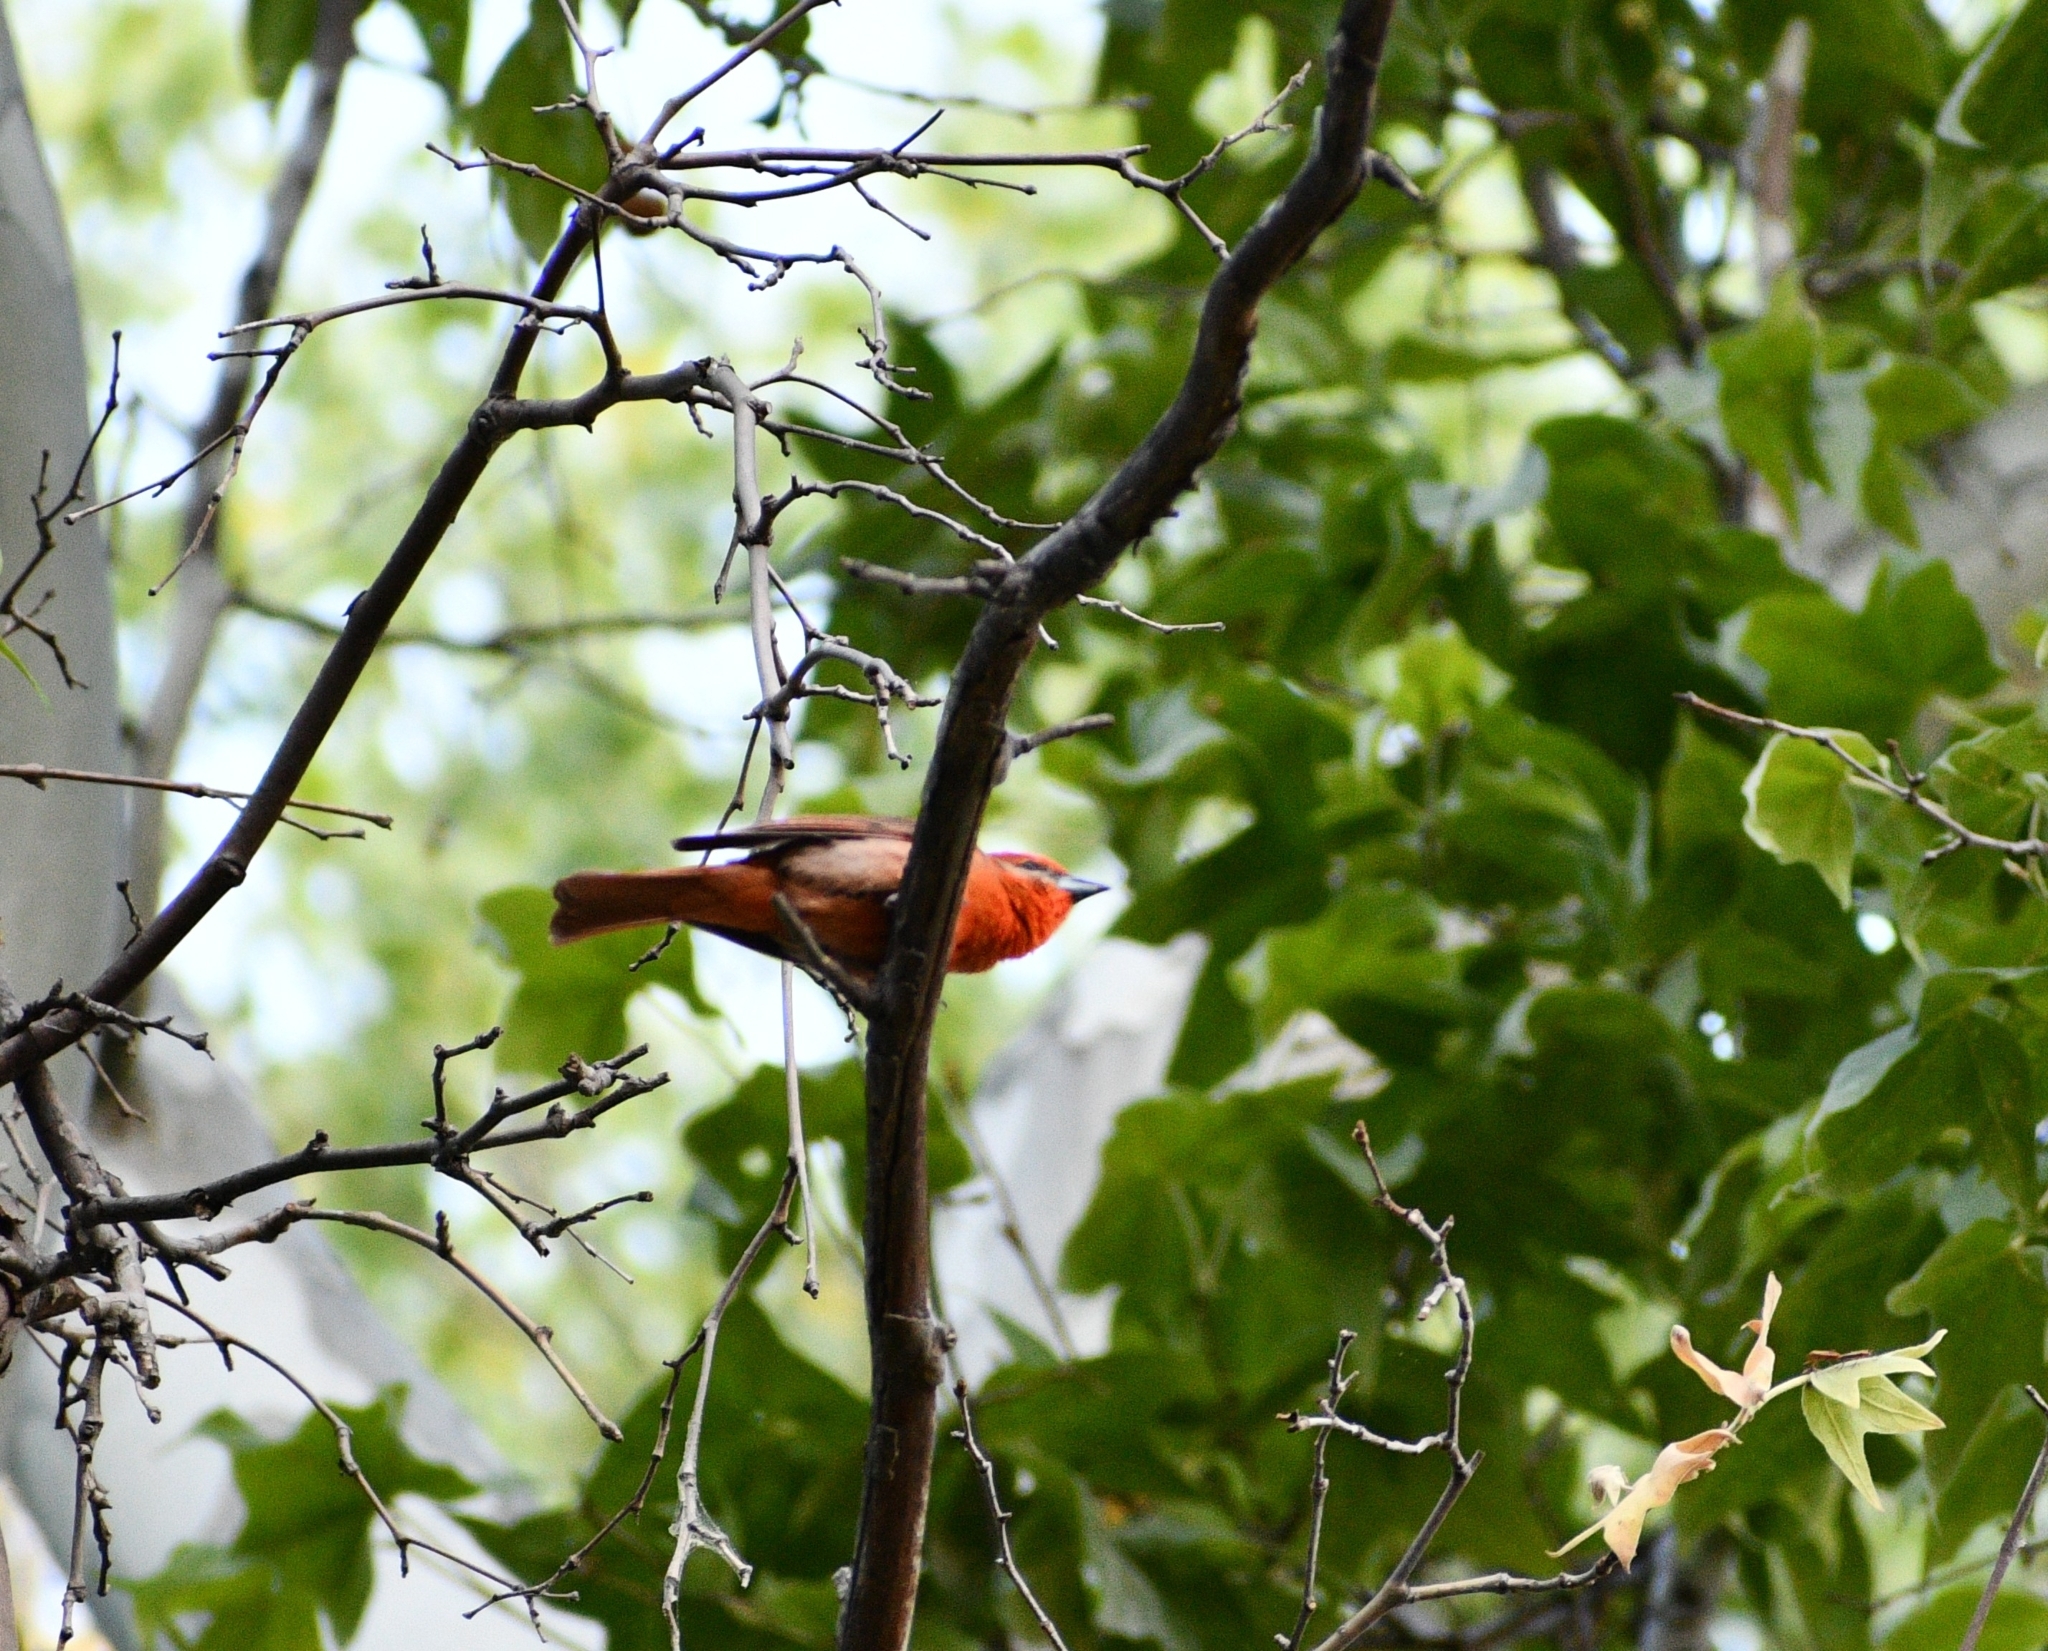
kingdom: Animalia
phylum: Chordata
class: Aves
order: Passeriformes
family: Cardinalidae
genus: Piranga
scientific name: Piranga flava
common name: Red tanager
